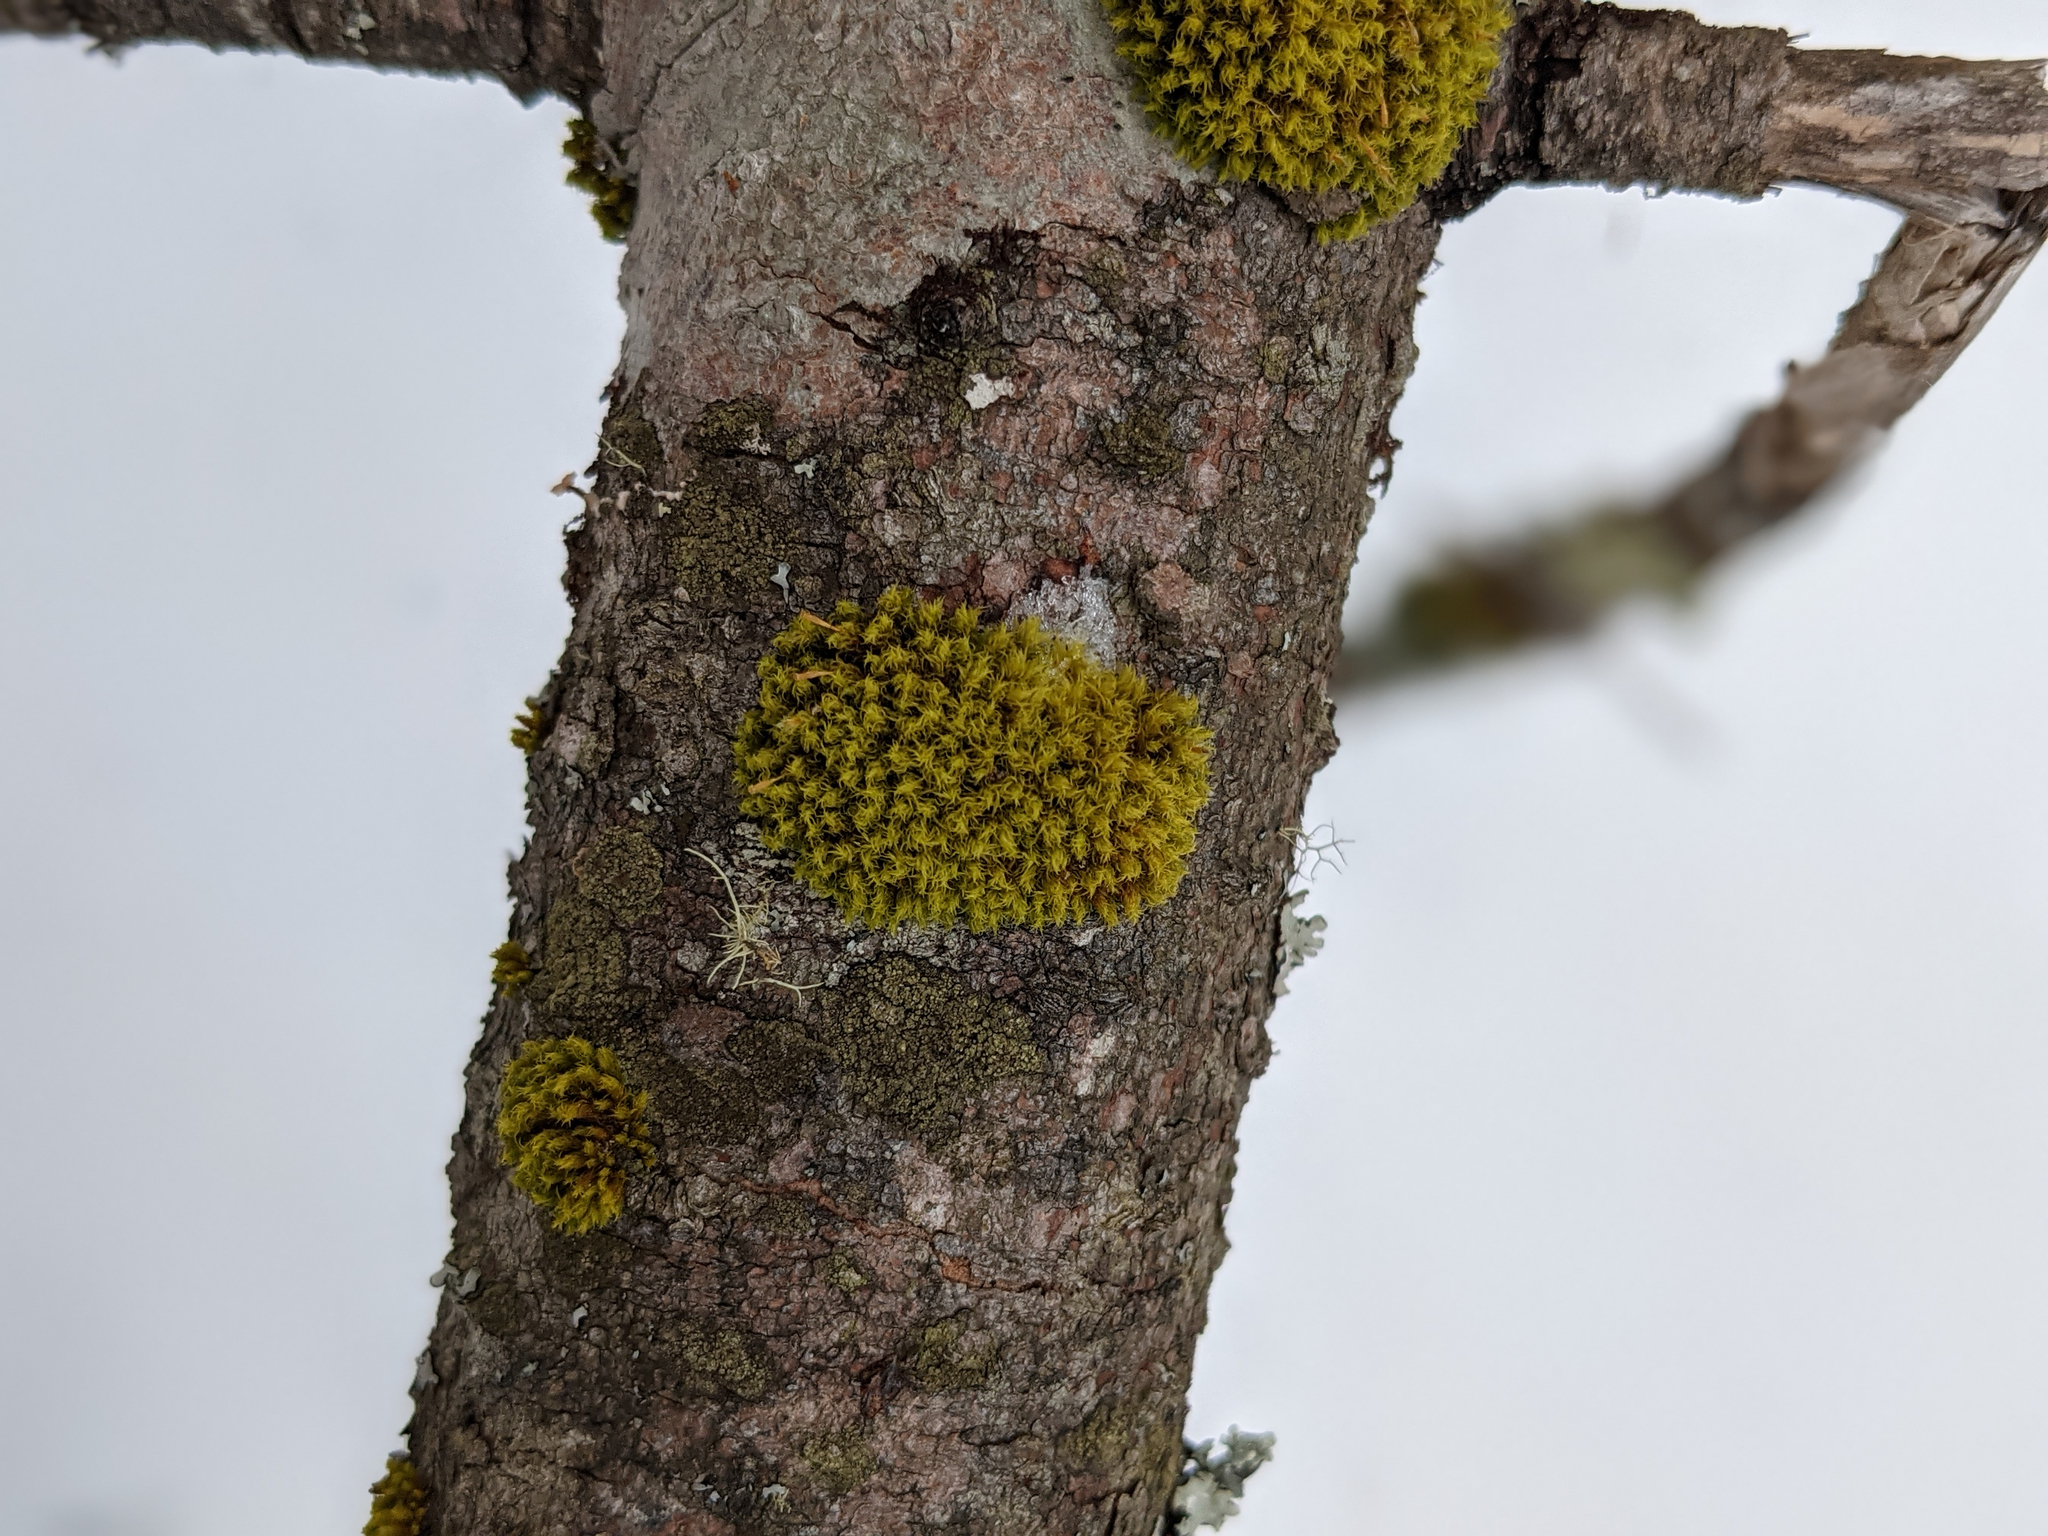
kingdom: Plantae
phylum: Bryophyta
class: Bryopsida
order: Orthotrichales
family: Orthotrichaceae
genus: Ulota
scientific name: Ulota crispa
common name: Crisped pincushion moss
